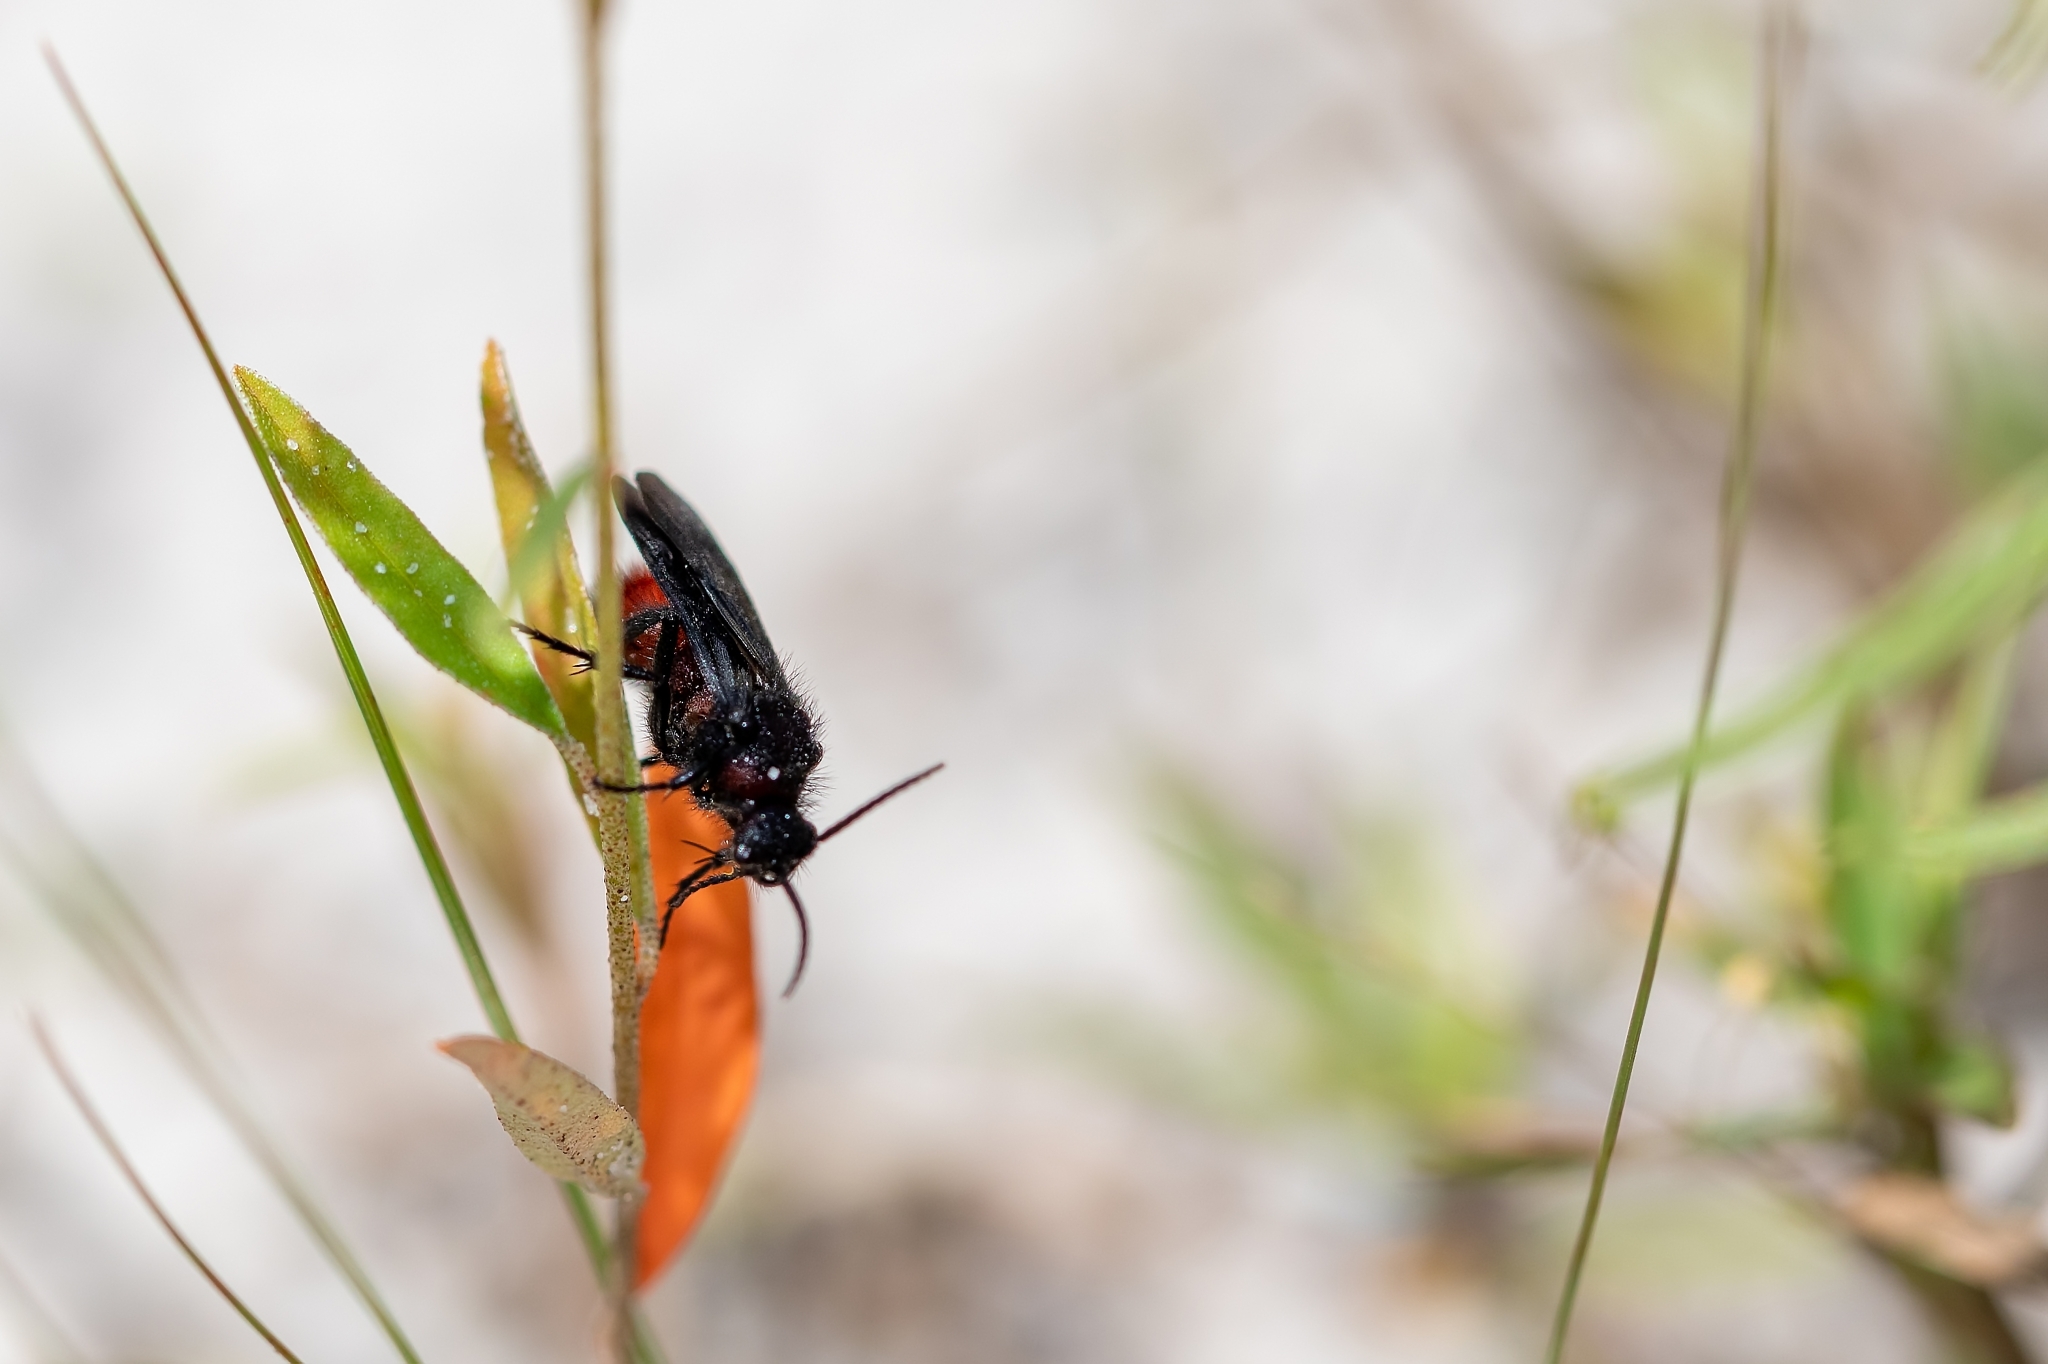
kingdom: Animalia
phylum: Arthropoda
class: Insecta
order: Hymenoptera
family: Mutillidae
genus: Dasymutilla
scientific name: Dasymutilla
